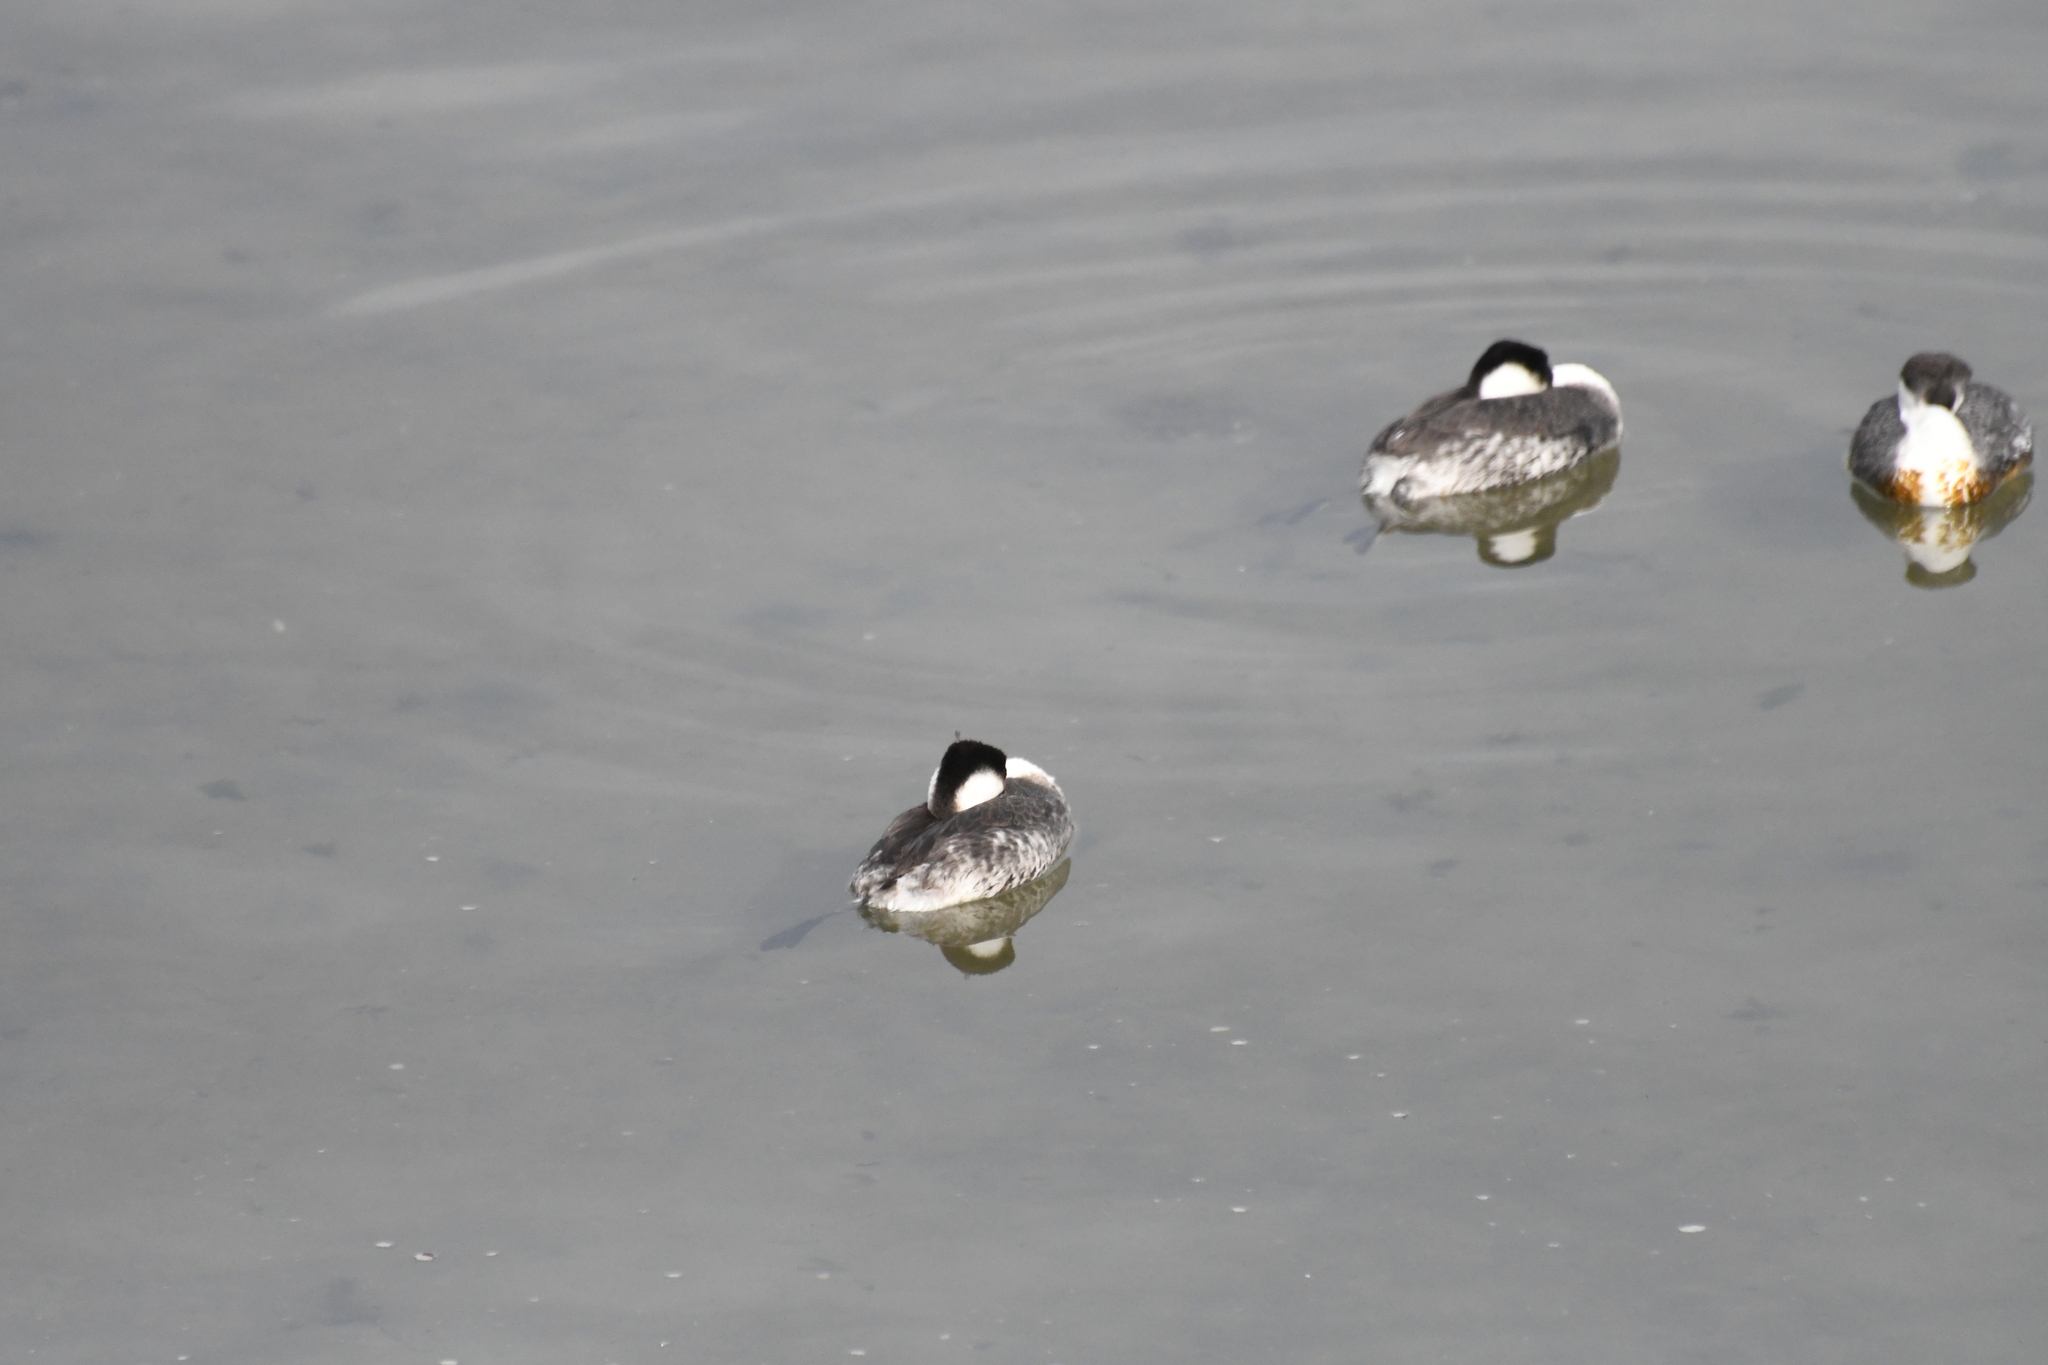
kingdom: Animalia
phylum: Chordata
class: Aves
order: Podicipediformes
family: Podicipedidae
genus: Aechmophorus
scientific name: Aechmophorus occidentalis
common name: Western grebe
